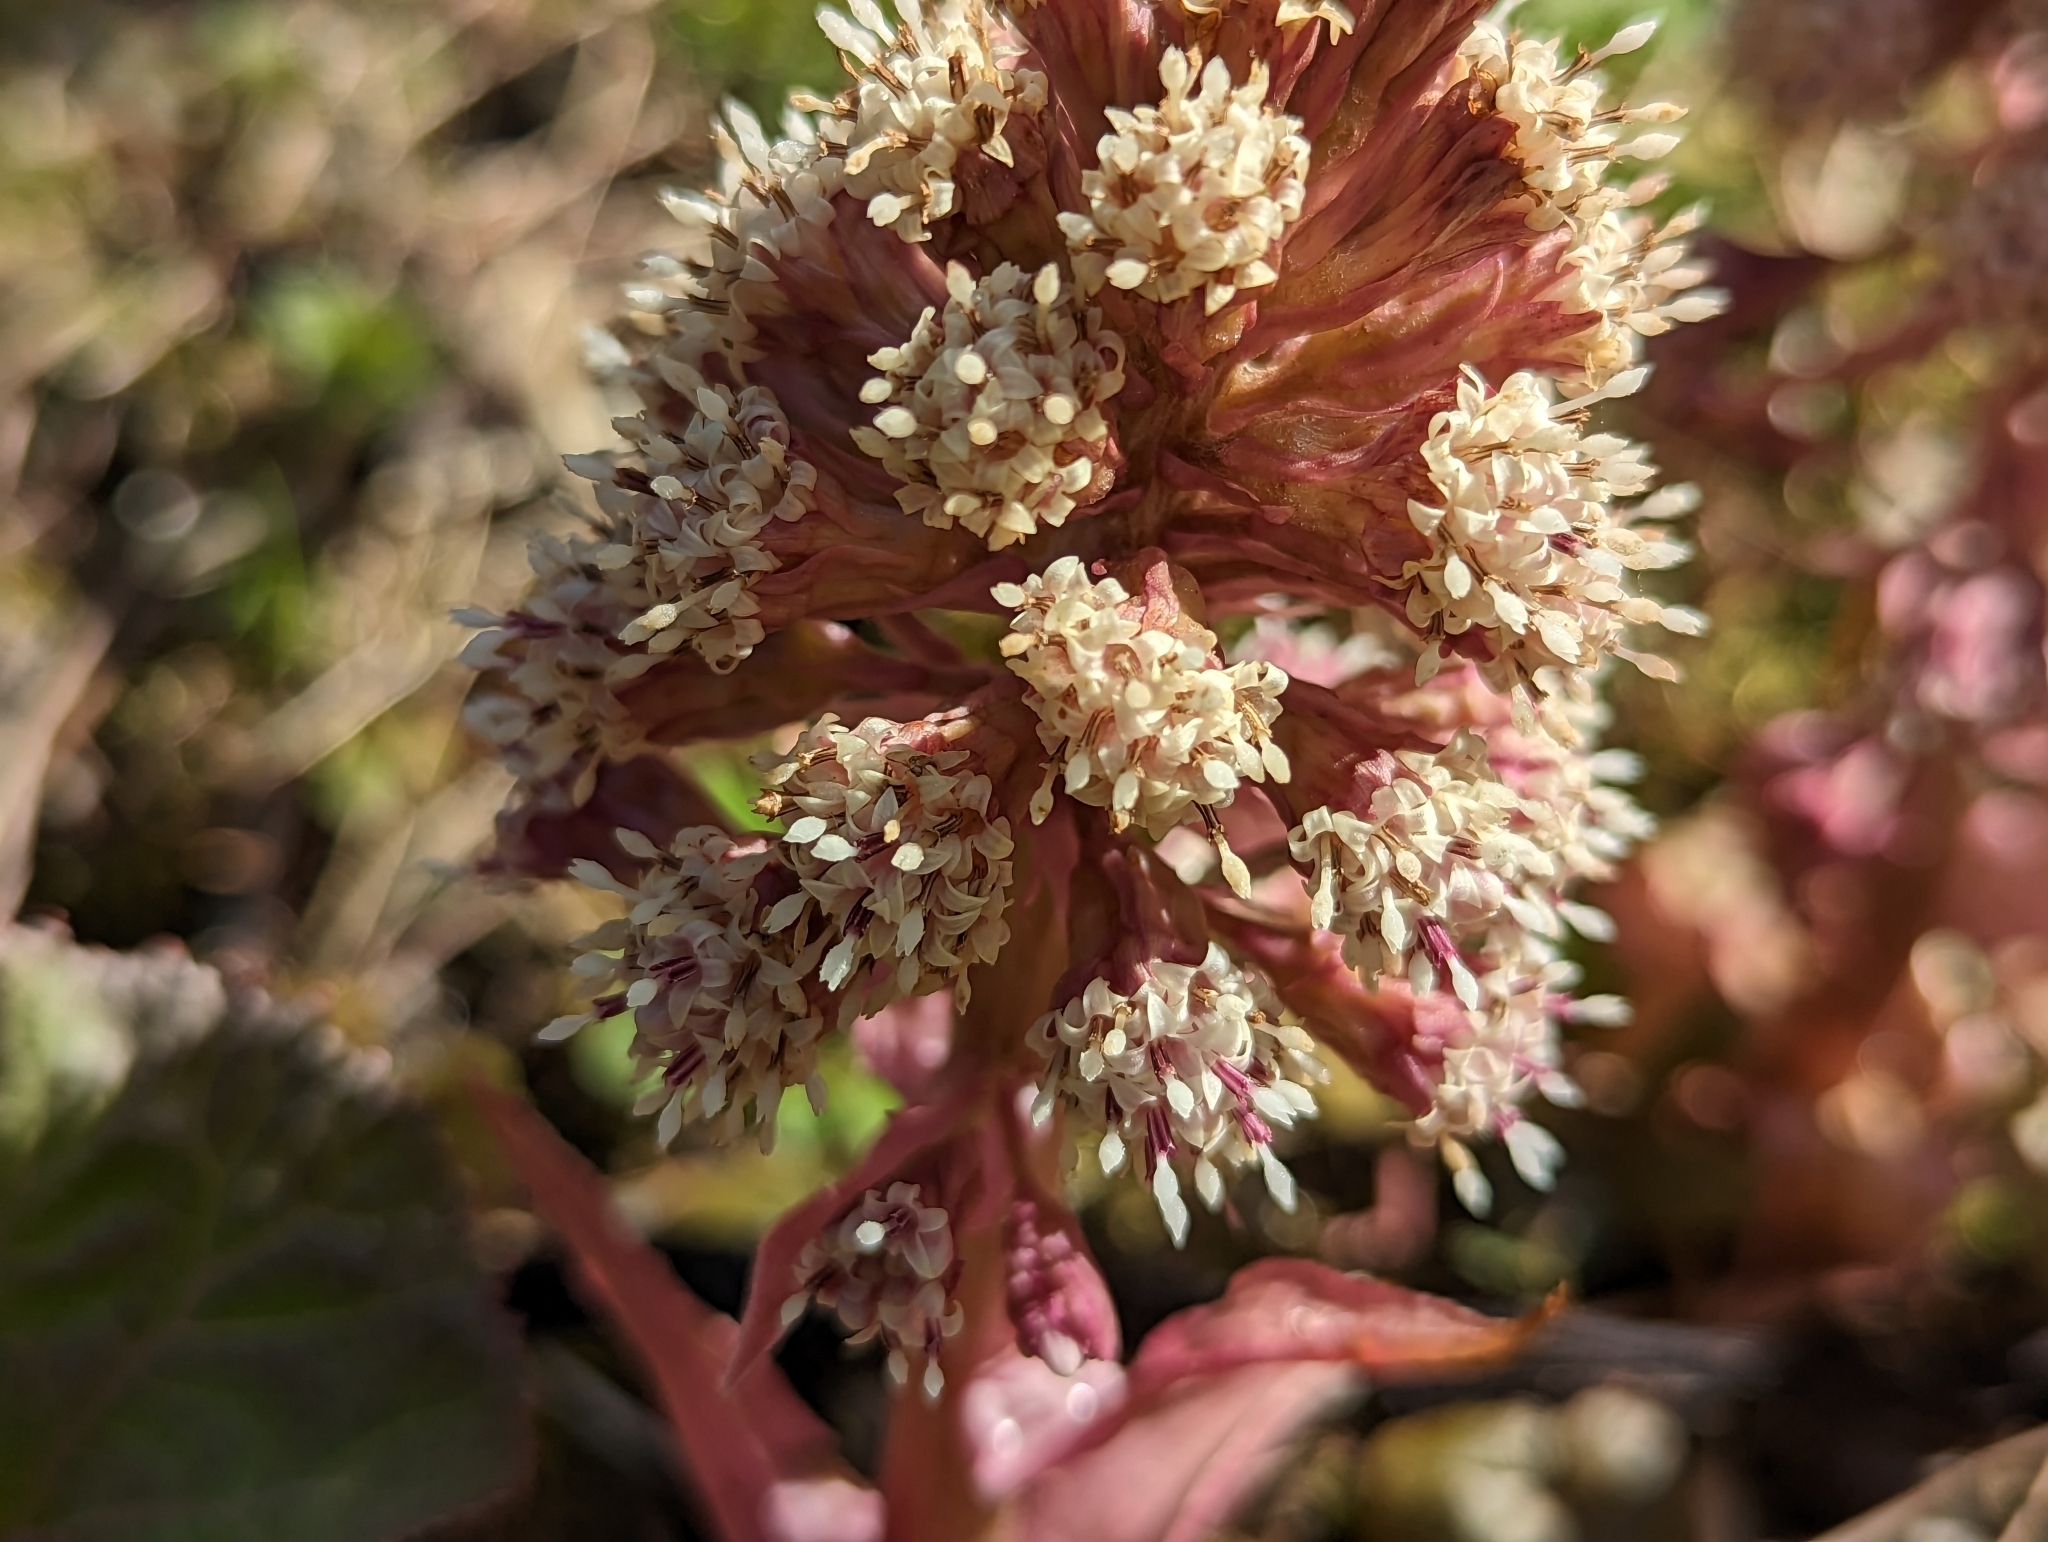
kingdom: Plantae
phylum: Tracheophyta
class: Magnoliopsida
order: Asterales
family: Asteraceae
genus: Petasites
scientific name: Petasites hybridus
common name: Butterbur
